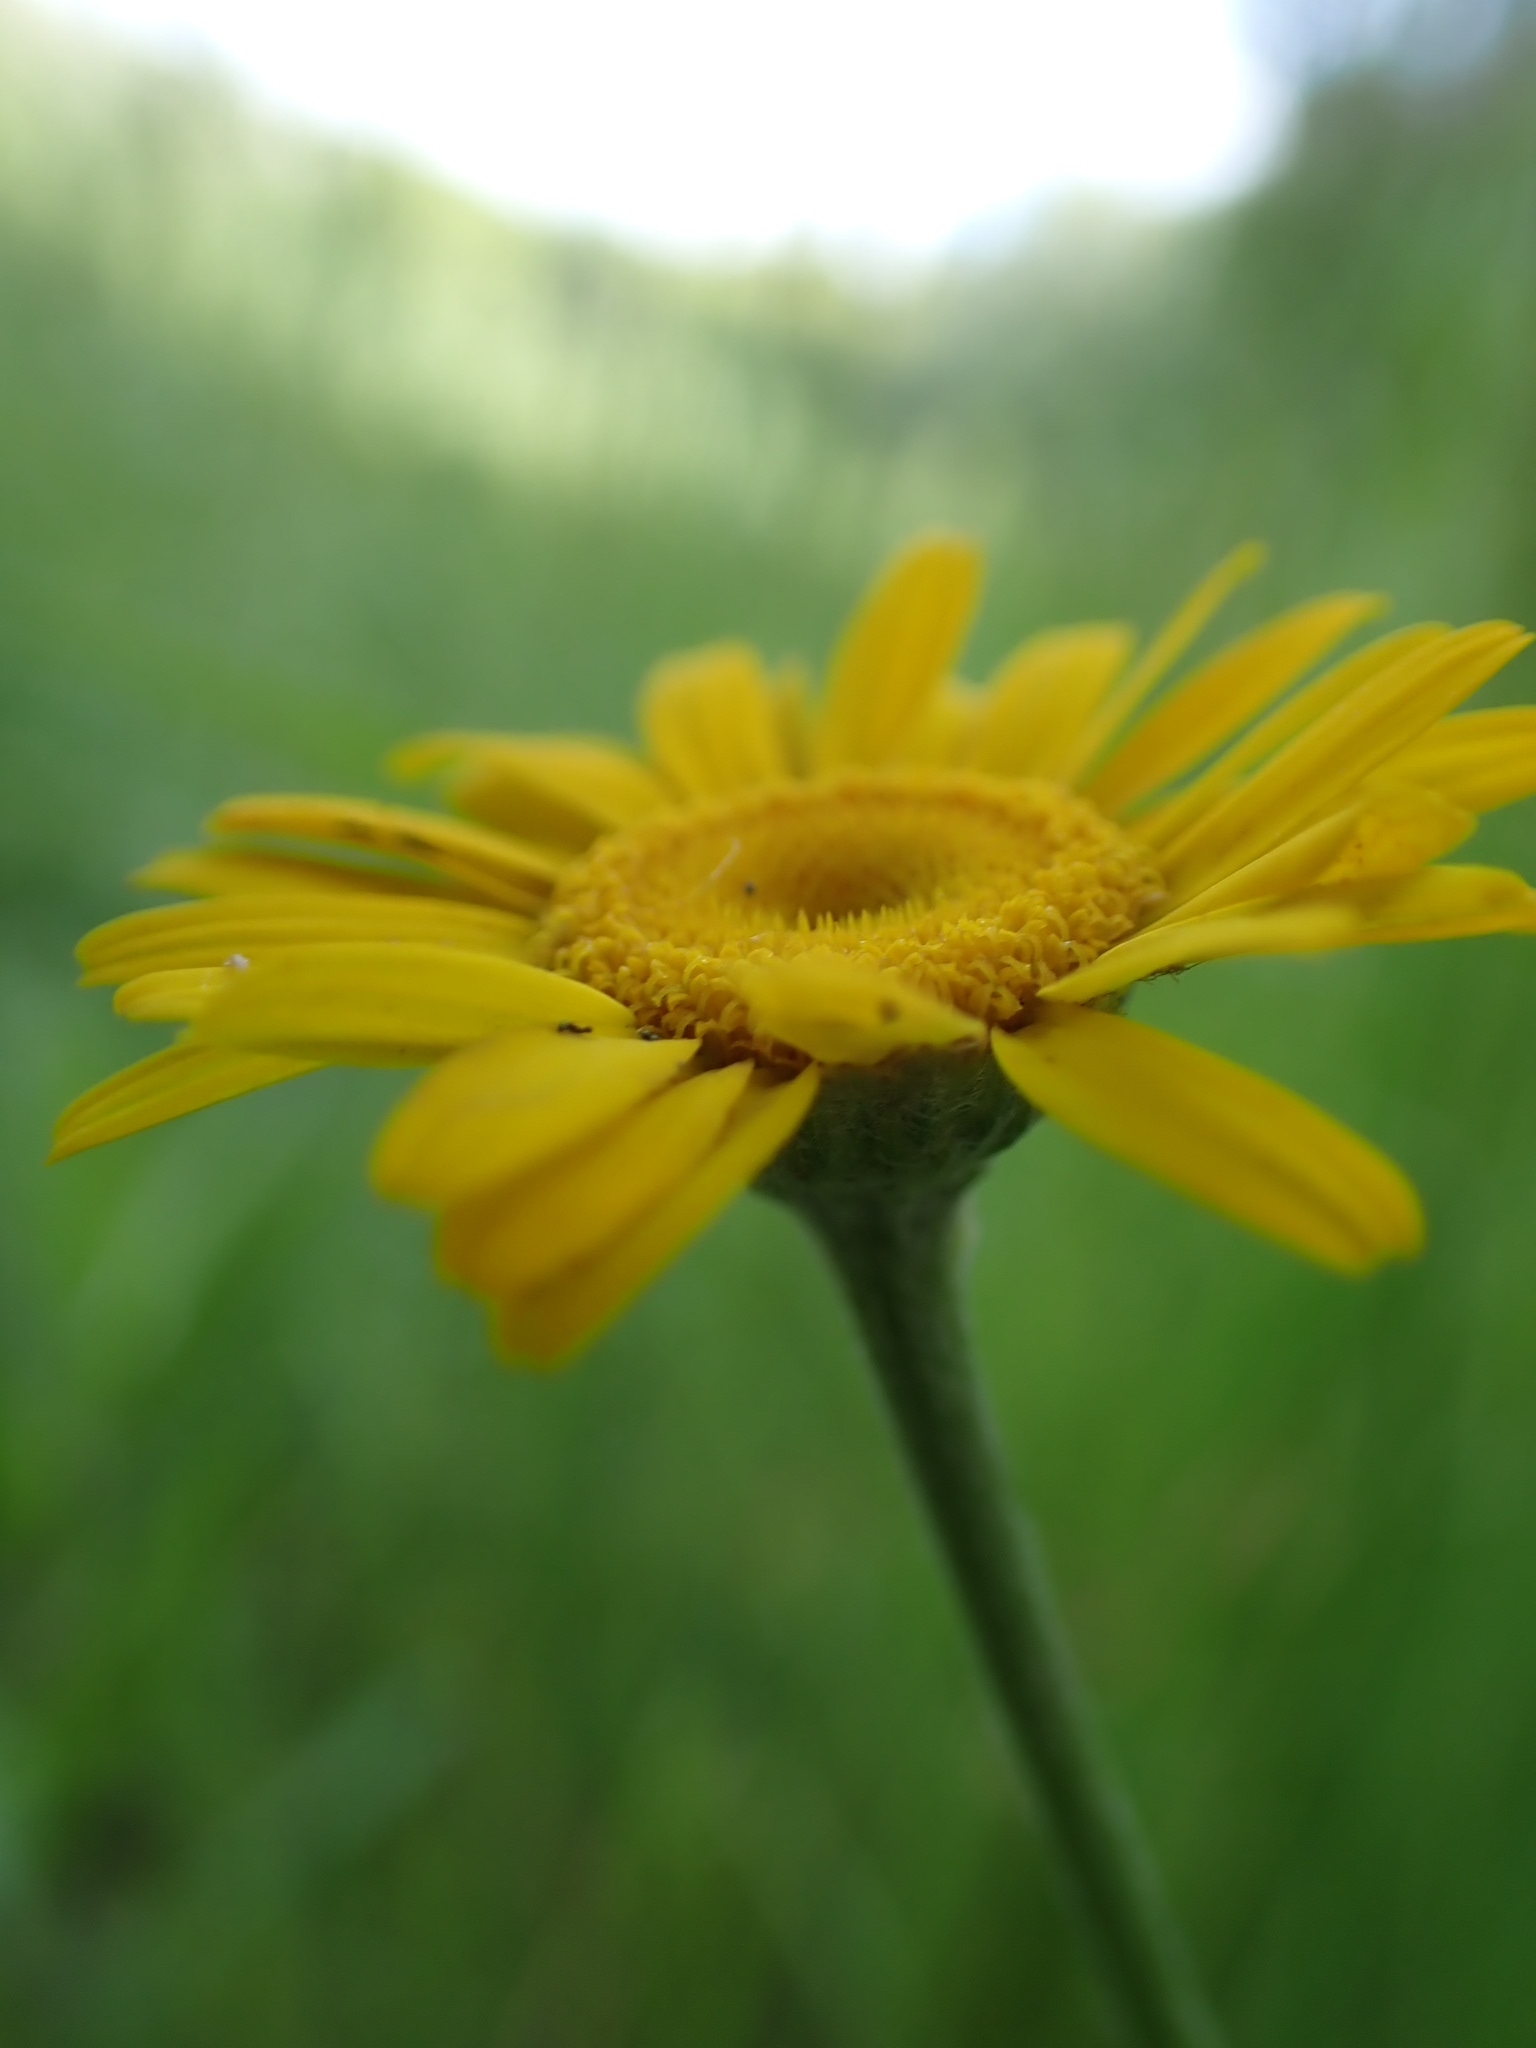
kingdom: Plantae
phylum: Tracheophyta
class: Magnoliopsida
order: Asterales
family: Asteraceae
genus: Cota
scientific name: Cota tinctoria
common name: Golden chamomile
